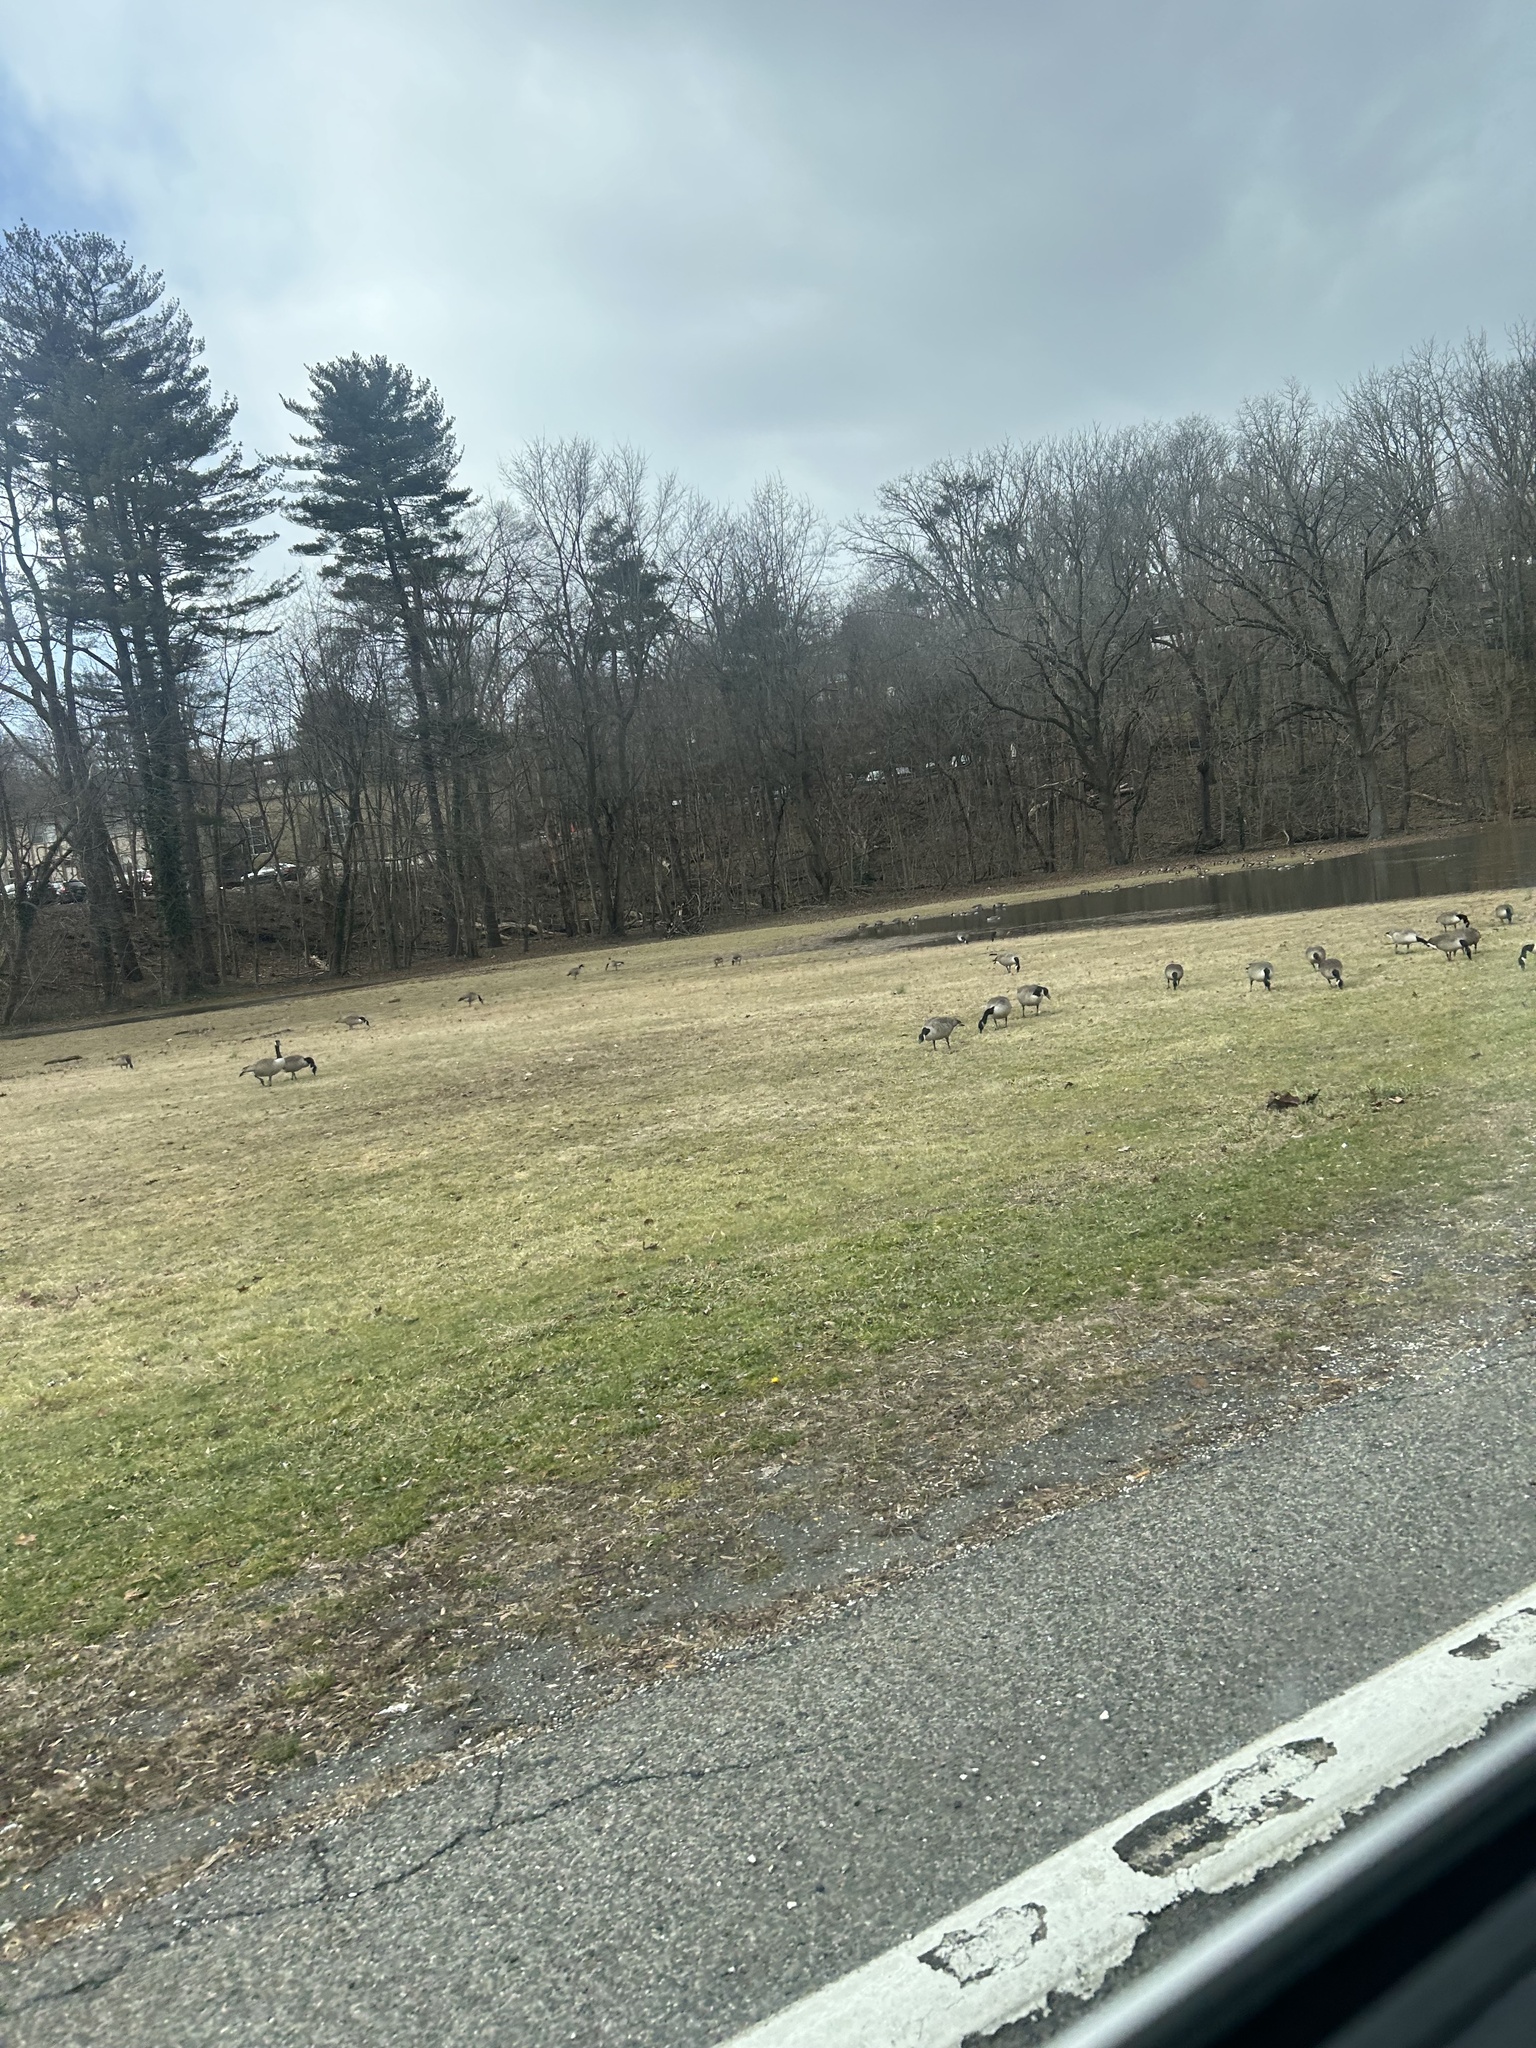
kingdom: Animalia
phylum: Chordata
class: Aves
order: Anseriformes
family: Anatidae
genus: Branta
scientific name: Branta canadensis
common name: Canada goose
